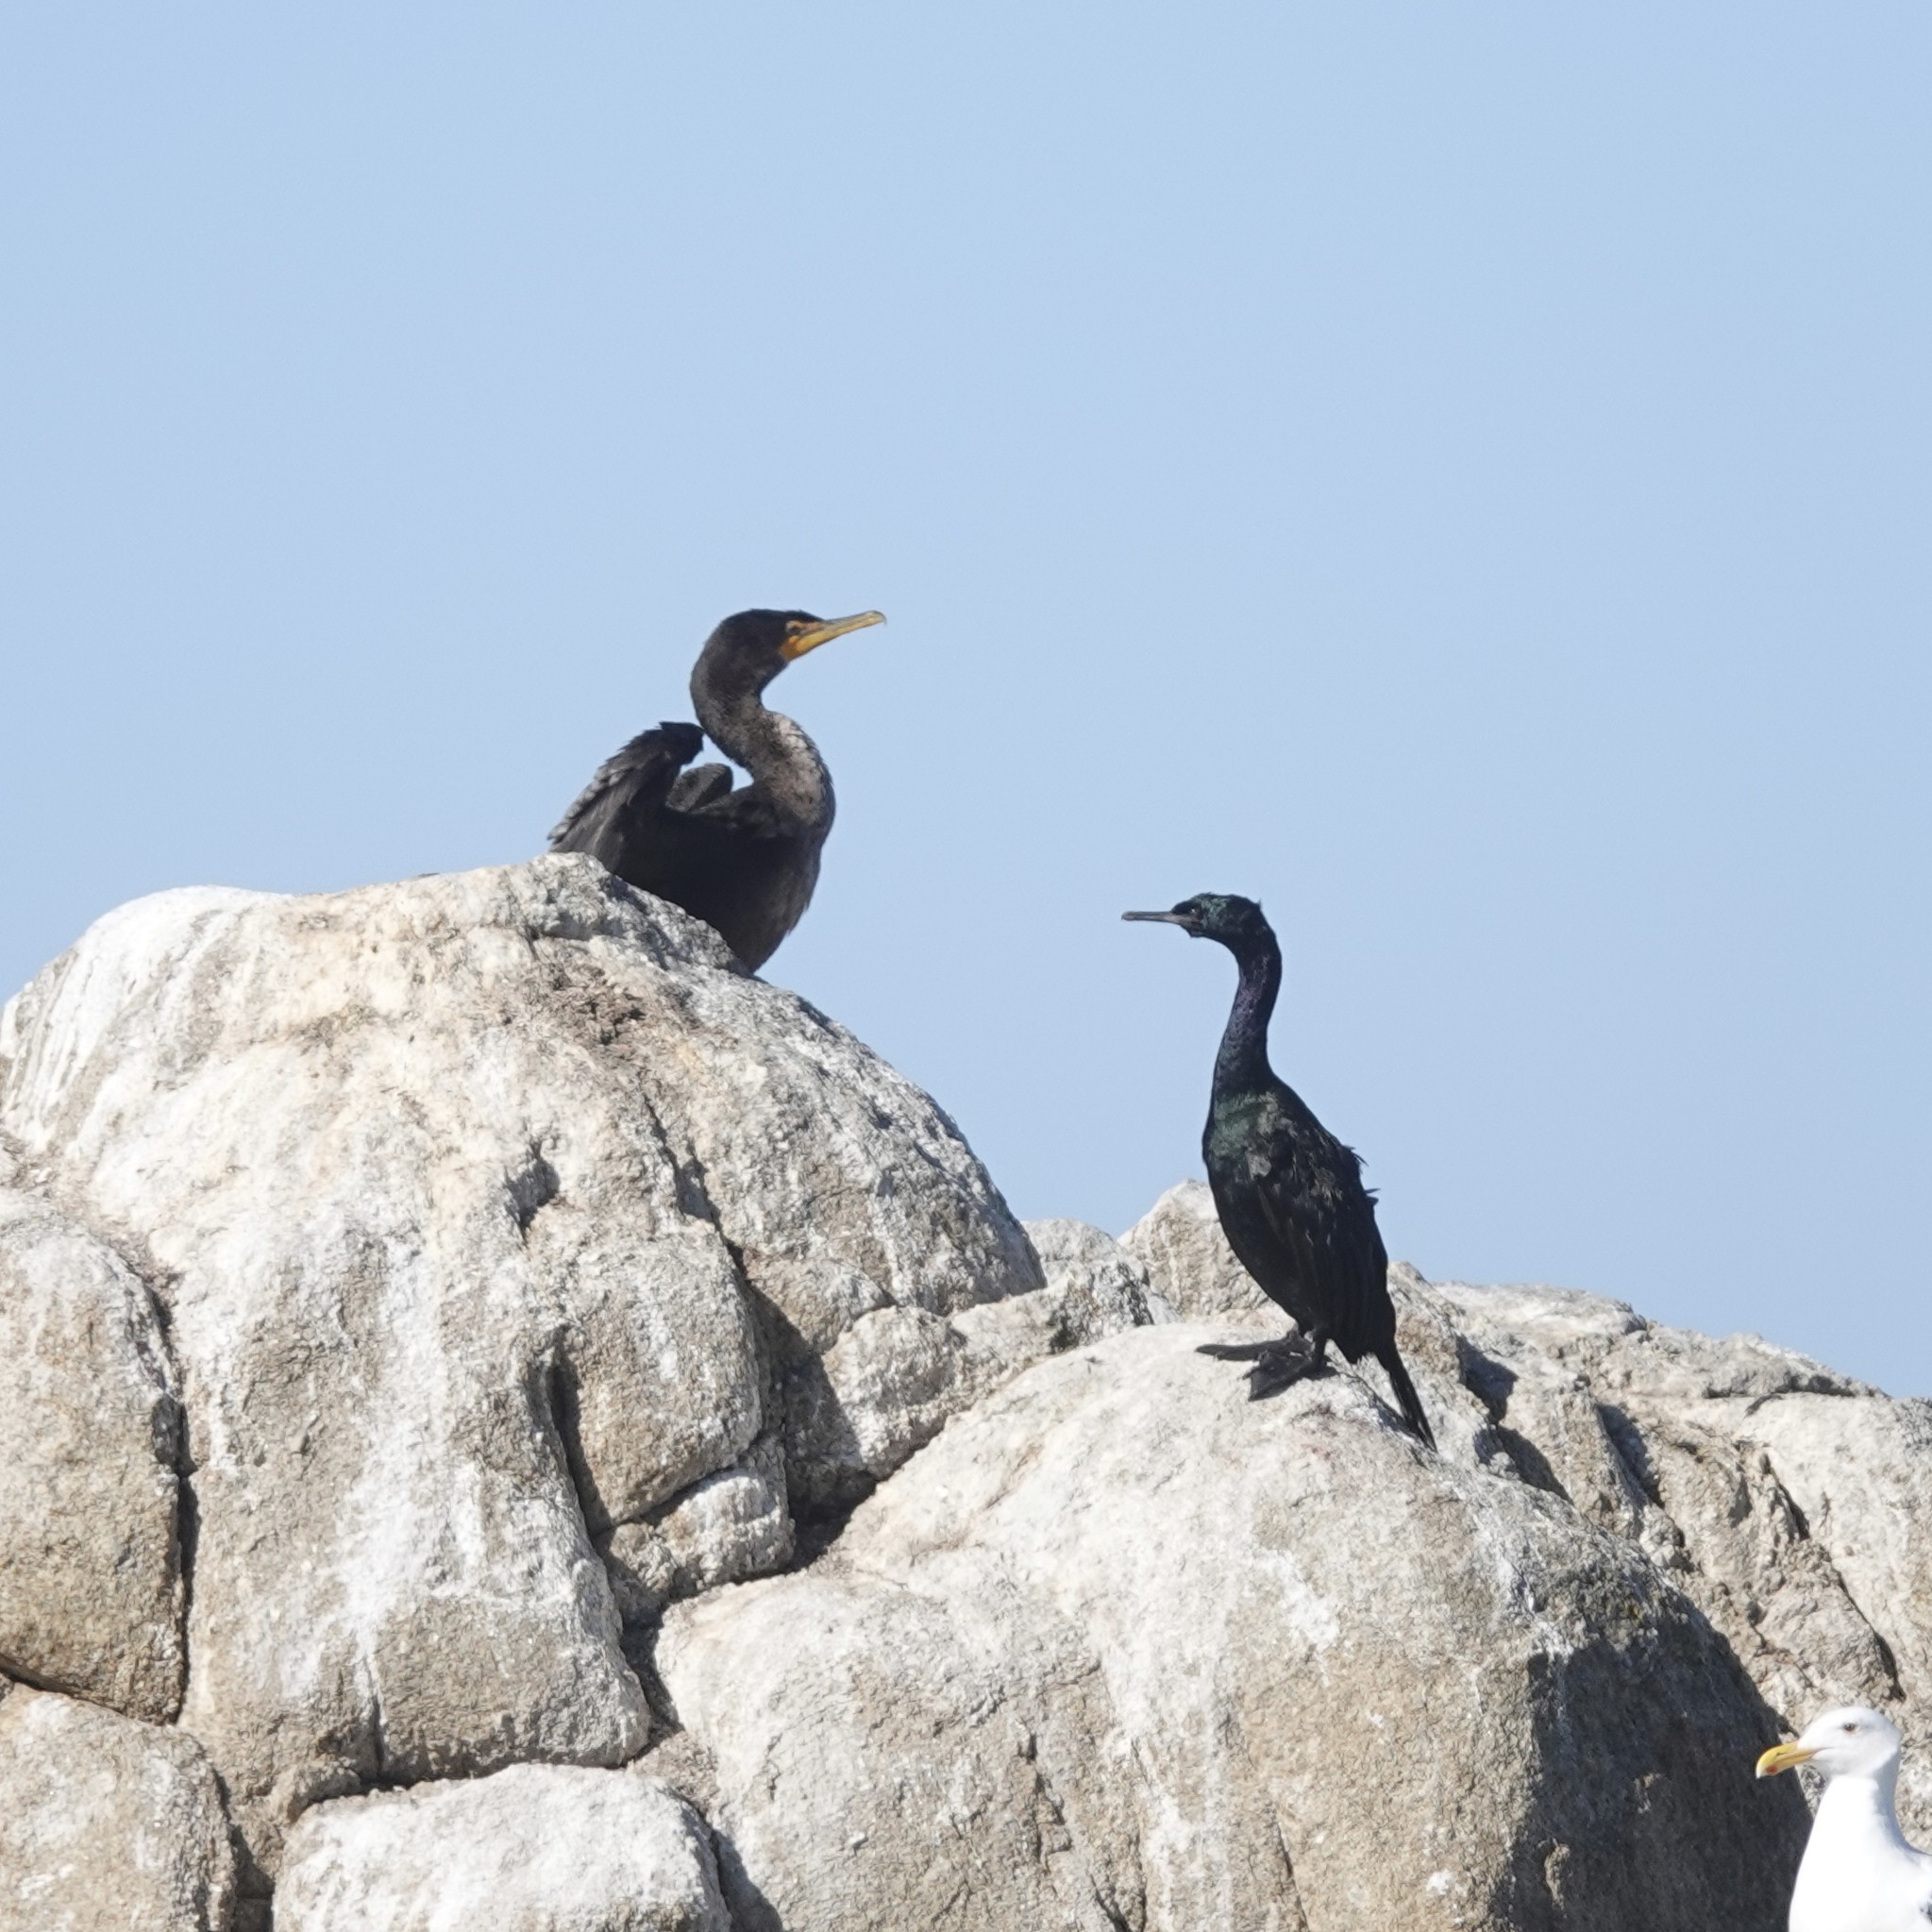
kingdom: Animalia
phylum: Chordata
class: Aves
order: Suliformes
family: Phalacrocoracidae
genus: Phalacrocorax
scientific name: Phalacrocorax pelagicus
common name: Pelagic cormorant
